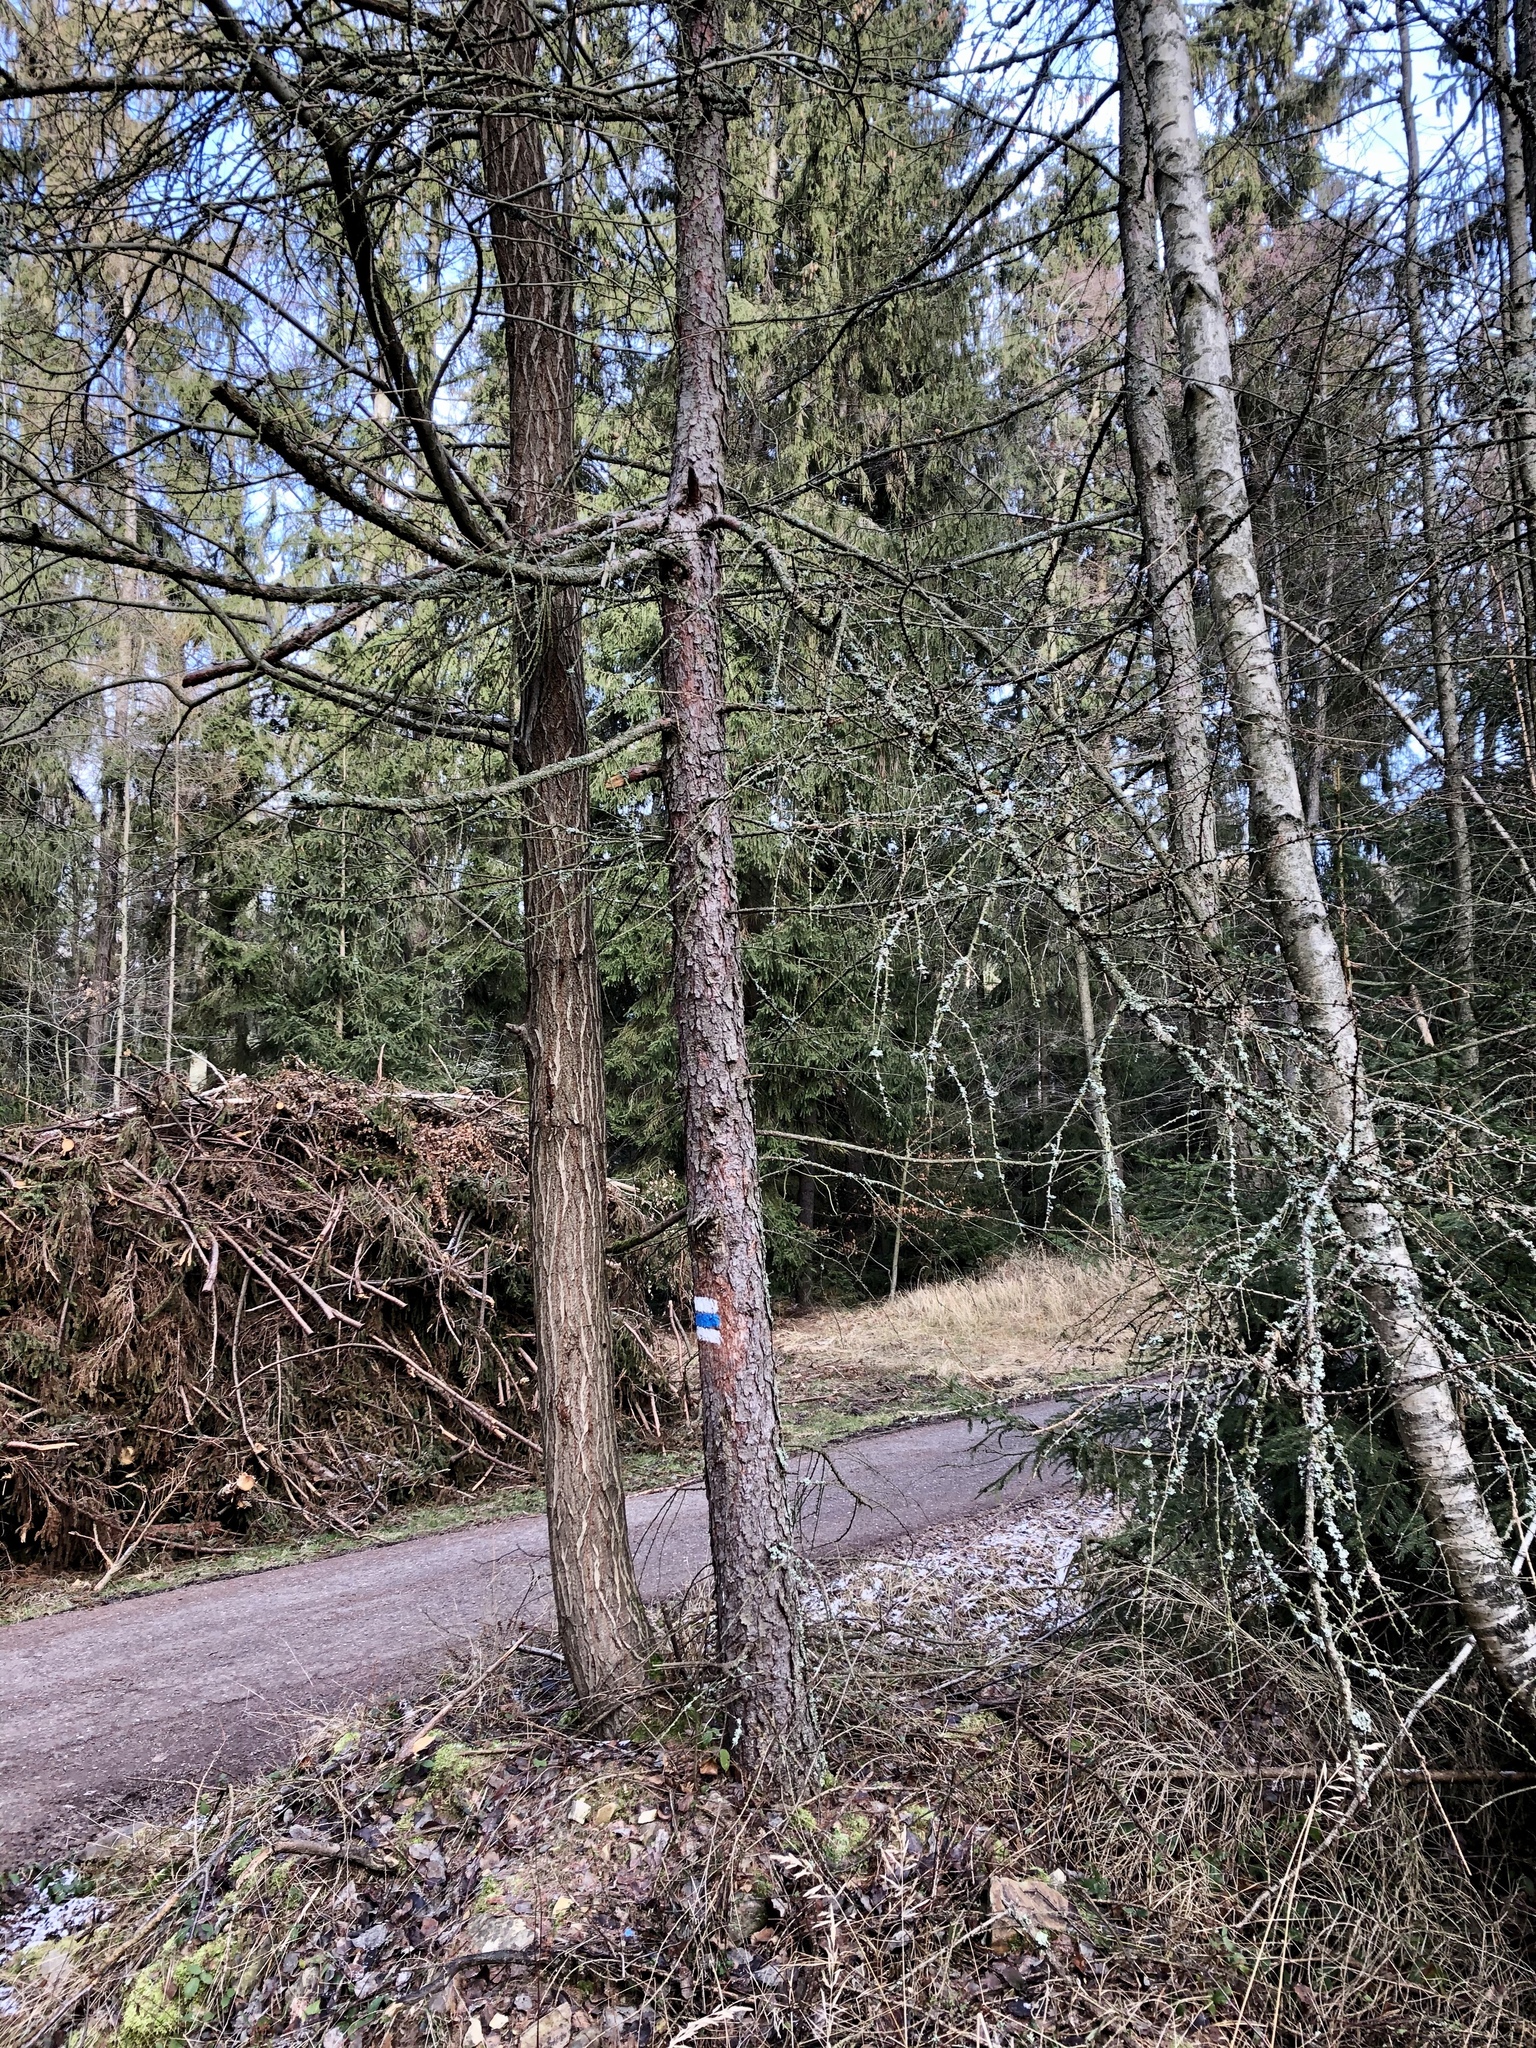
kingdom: Plantae
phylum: Tracheophyta
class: Pinopsida
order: Pinales
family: Pinaceae
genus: Larix
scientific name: Larix decidua
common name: European larch
